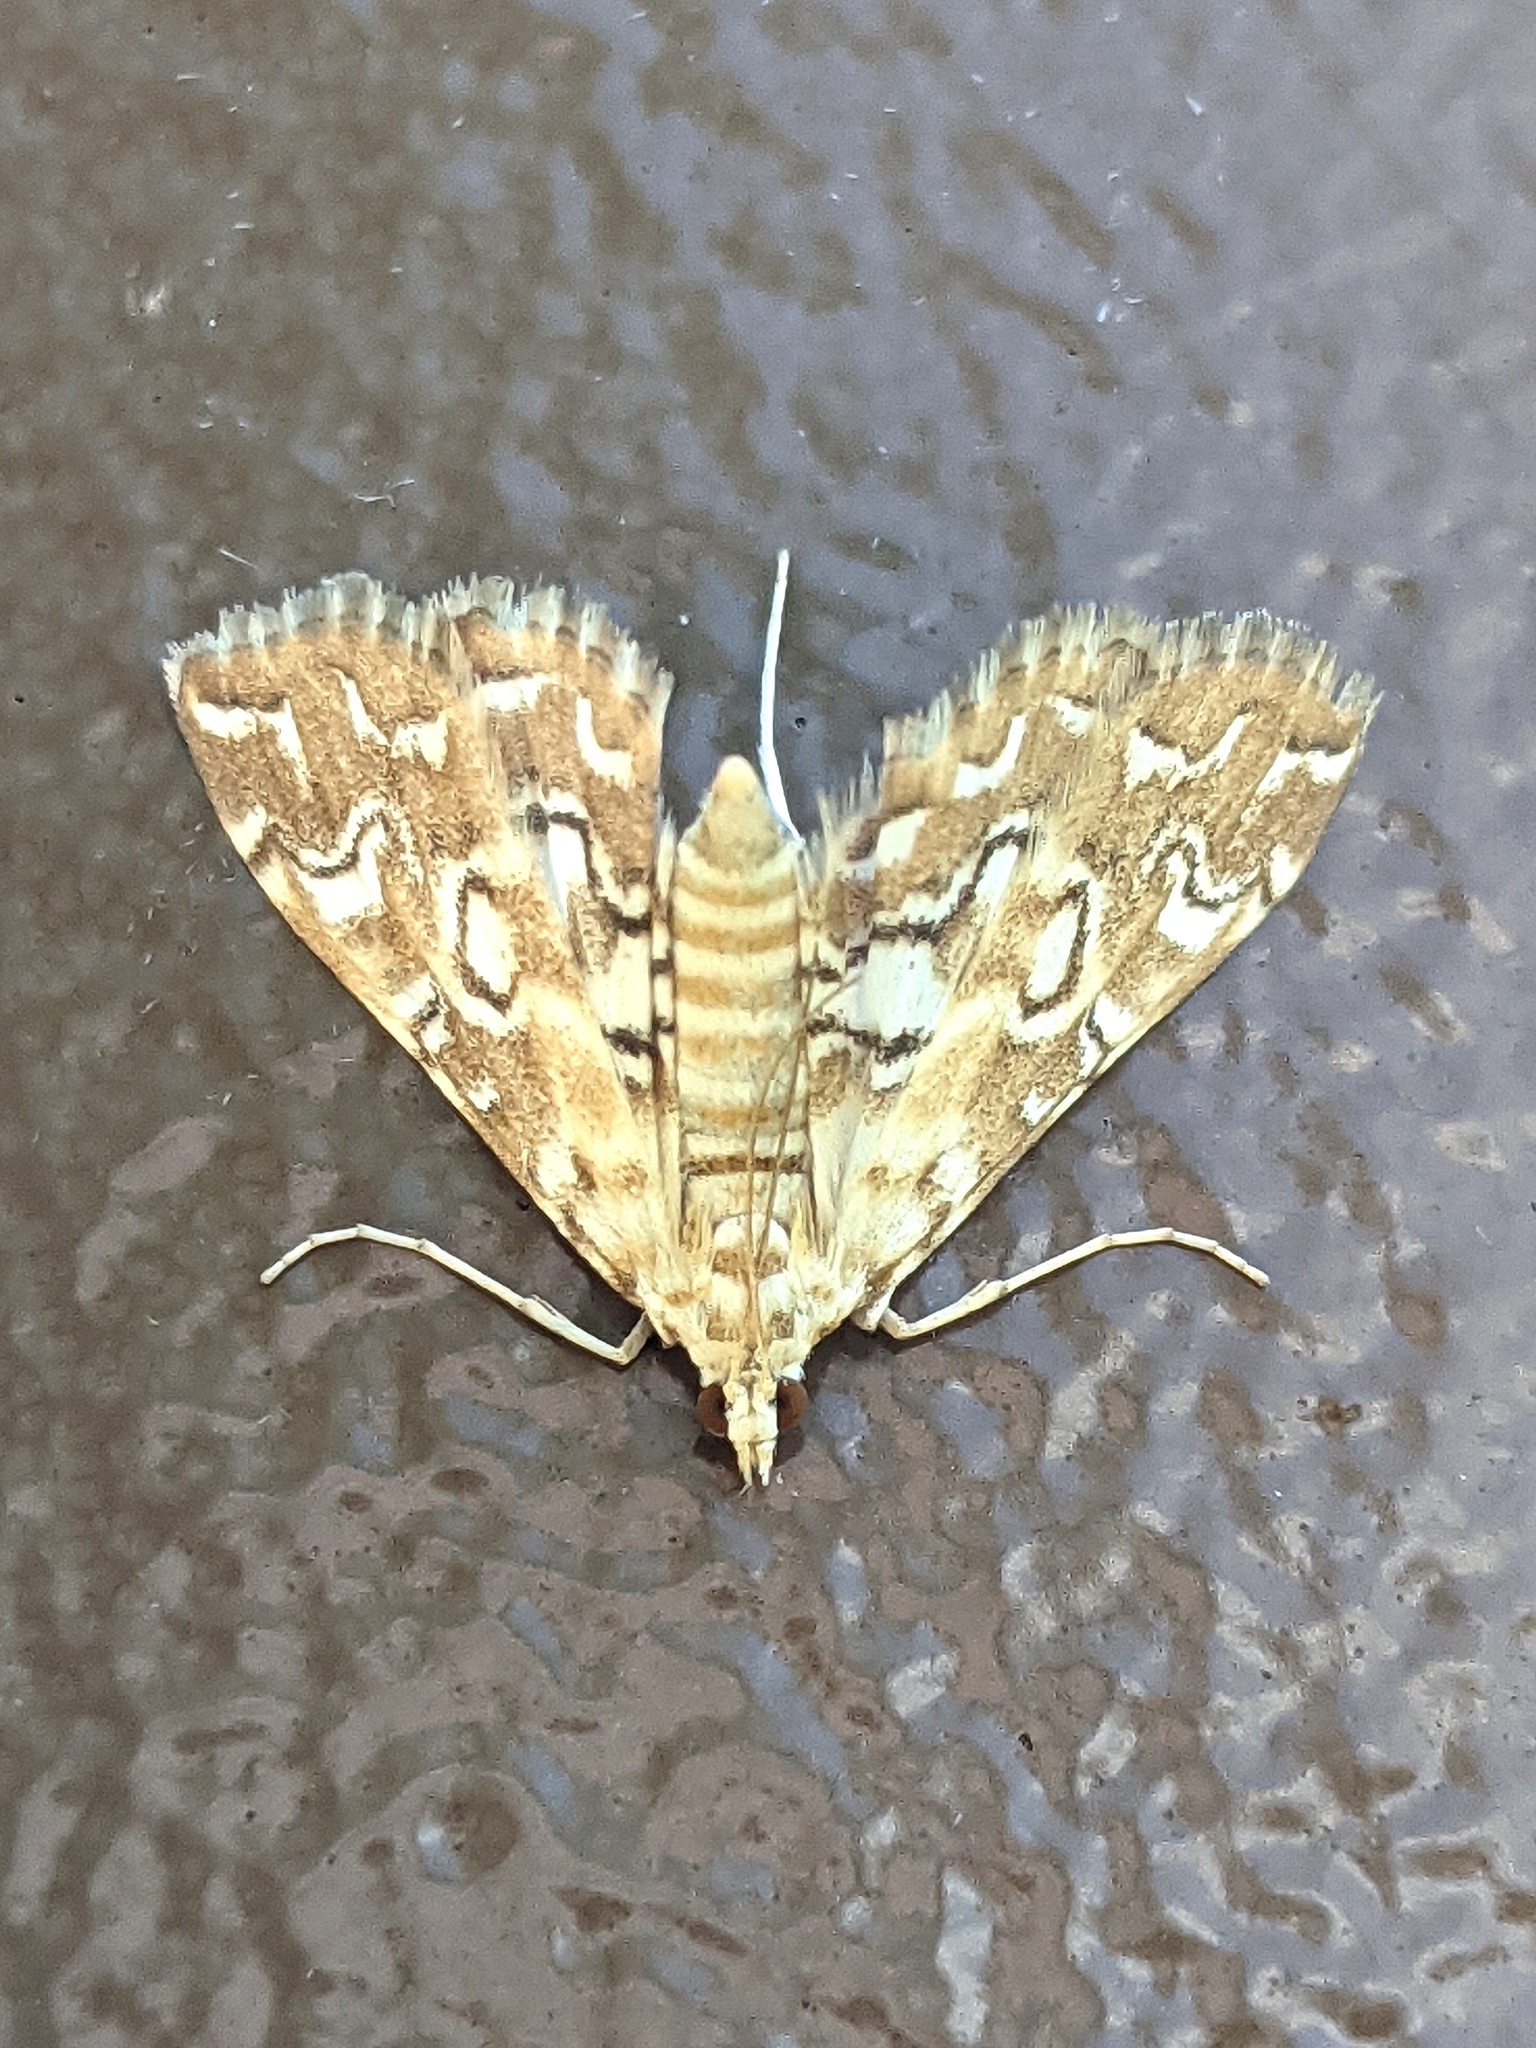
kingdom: Animalia
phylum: Arthropoda
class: Insecta
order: Lepidoptera
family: Crambidae
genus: Elophila
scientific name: Elophila icciusalis
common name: Pondside pyralid moth
